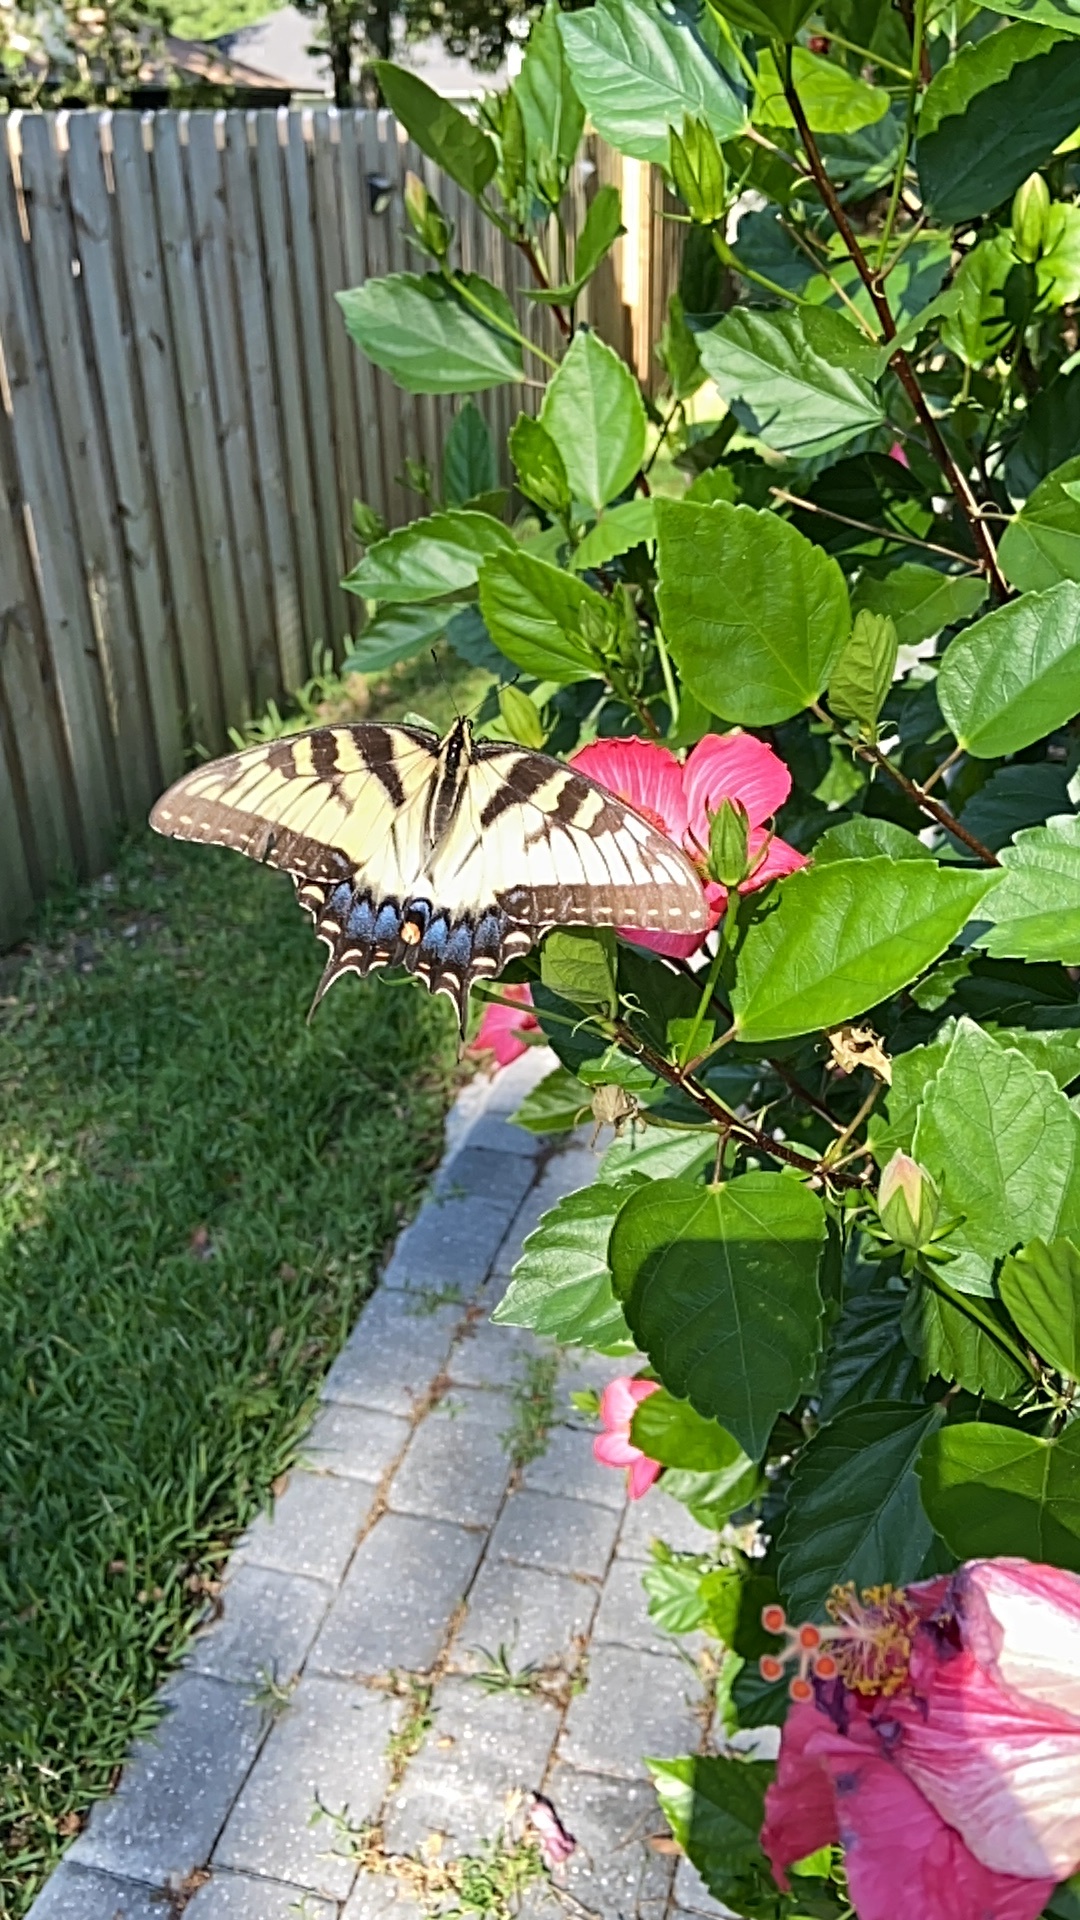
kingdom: Animalia
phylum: Arthropoda
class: Insecta
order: Lepidoptera
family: Papilionidae
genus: Papilio
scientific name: Papilio glaucus
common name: Tiger swallowtail
